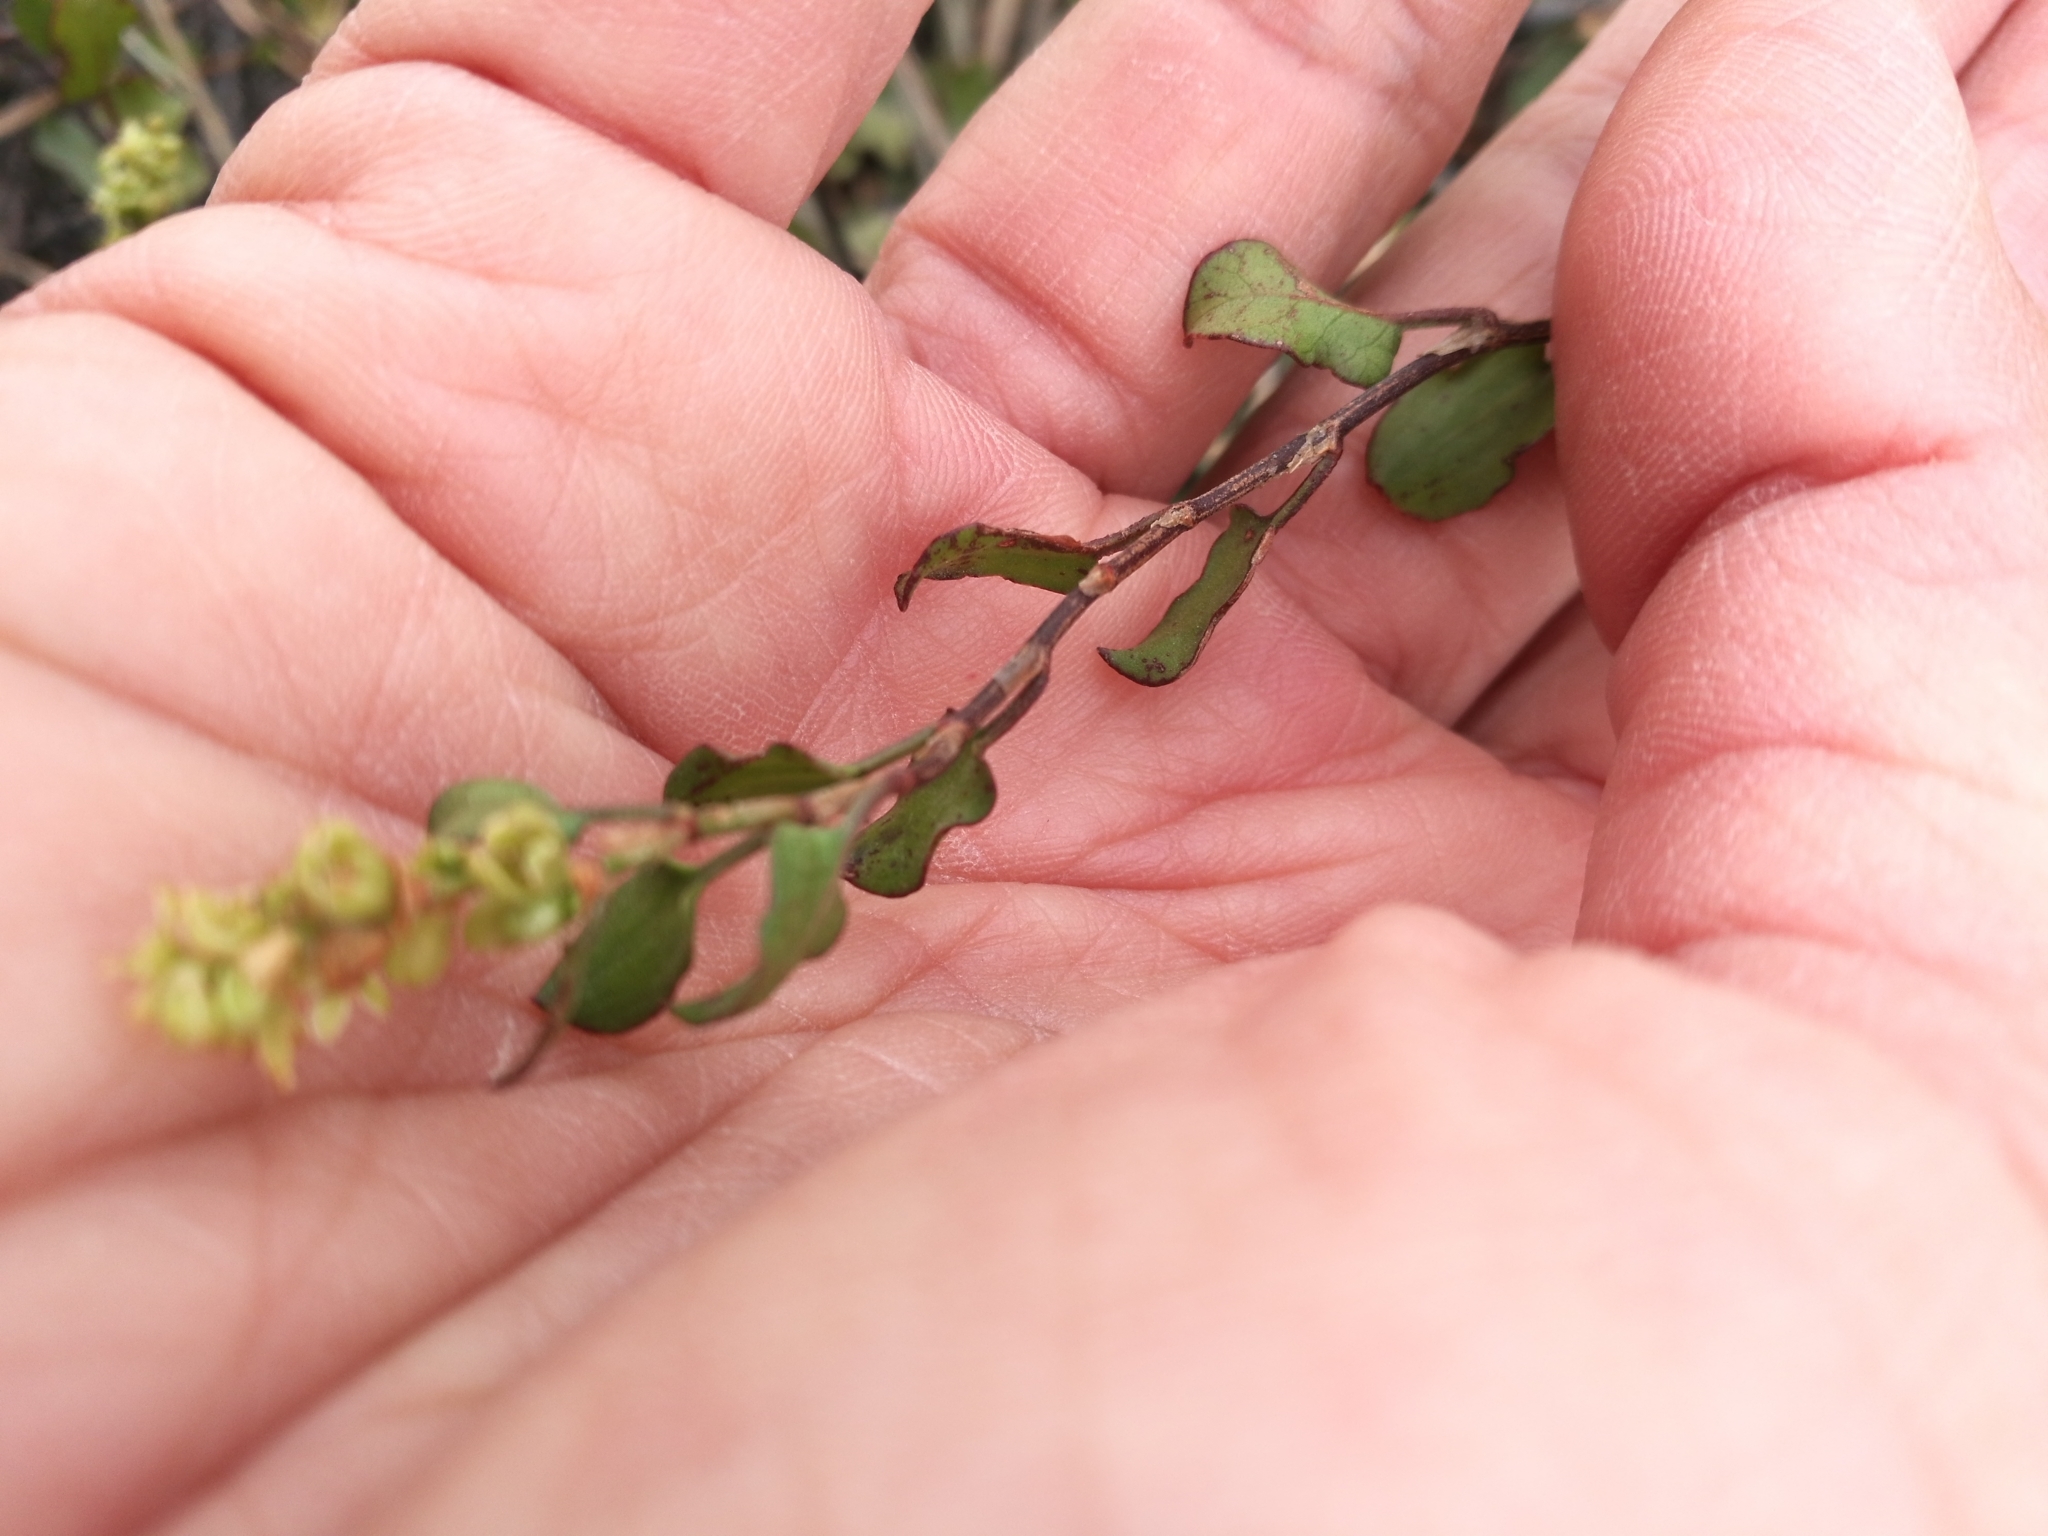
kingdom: Plantae
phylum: Tracheophyta
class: Magnoliopsida
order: Caryophyllales
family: Polygonaceae
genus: Muehlenbeckia
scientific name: Muehlenbeckia complexa
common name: Wireplant
